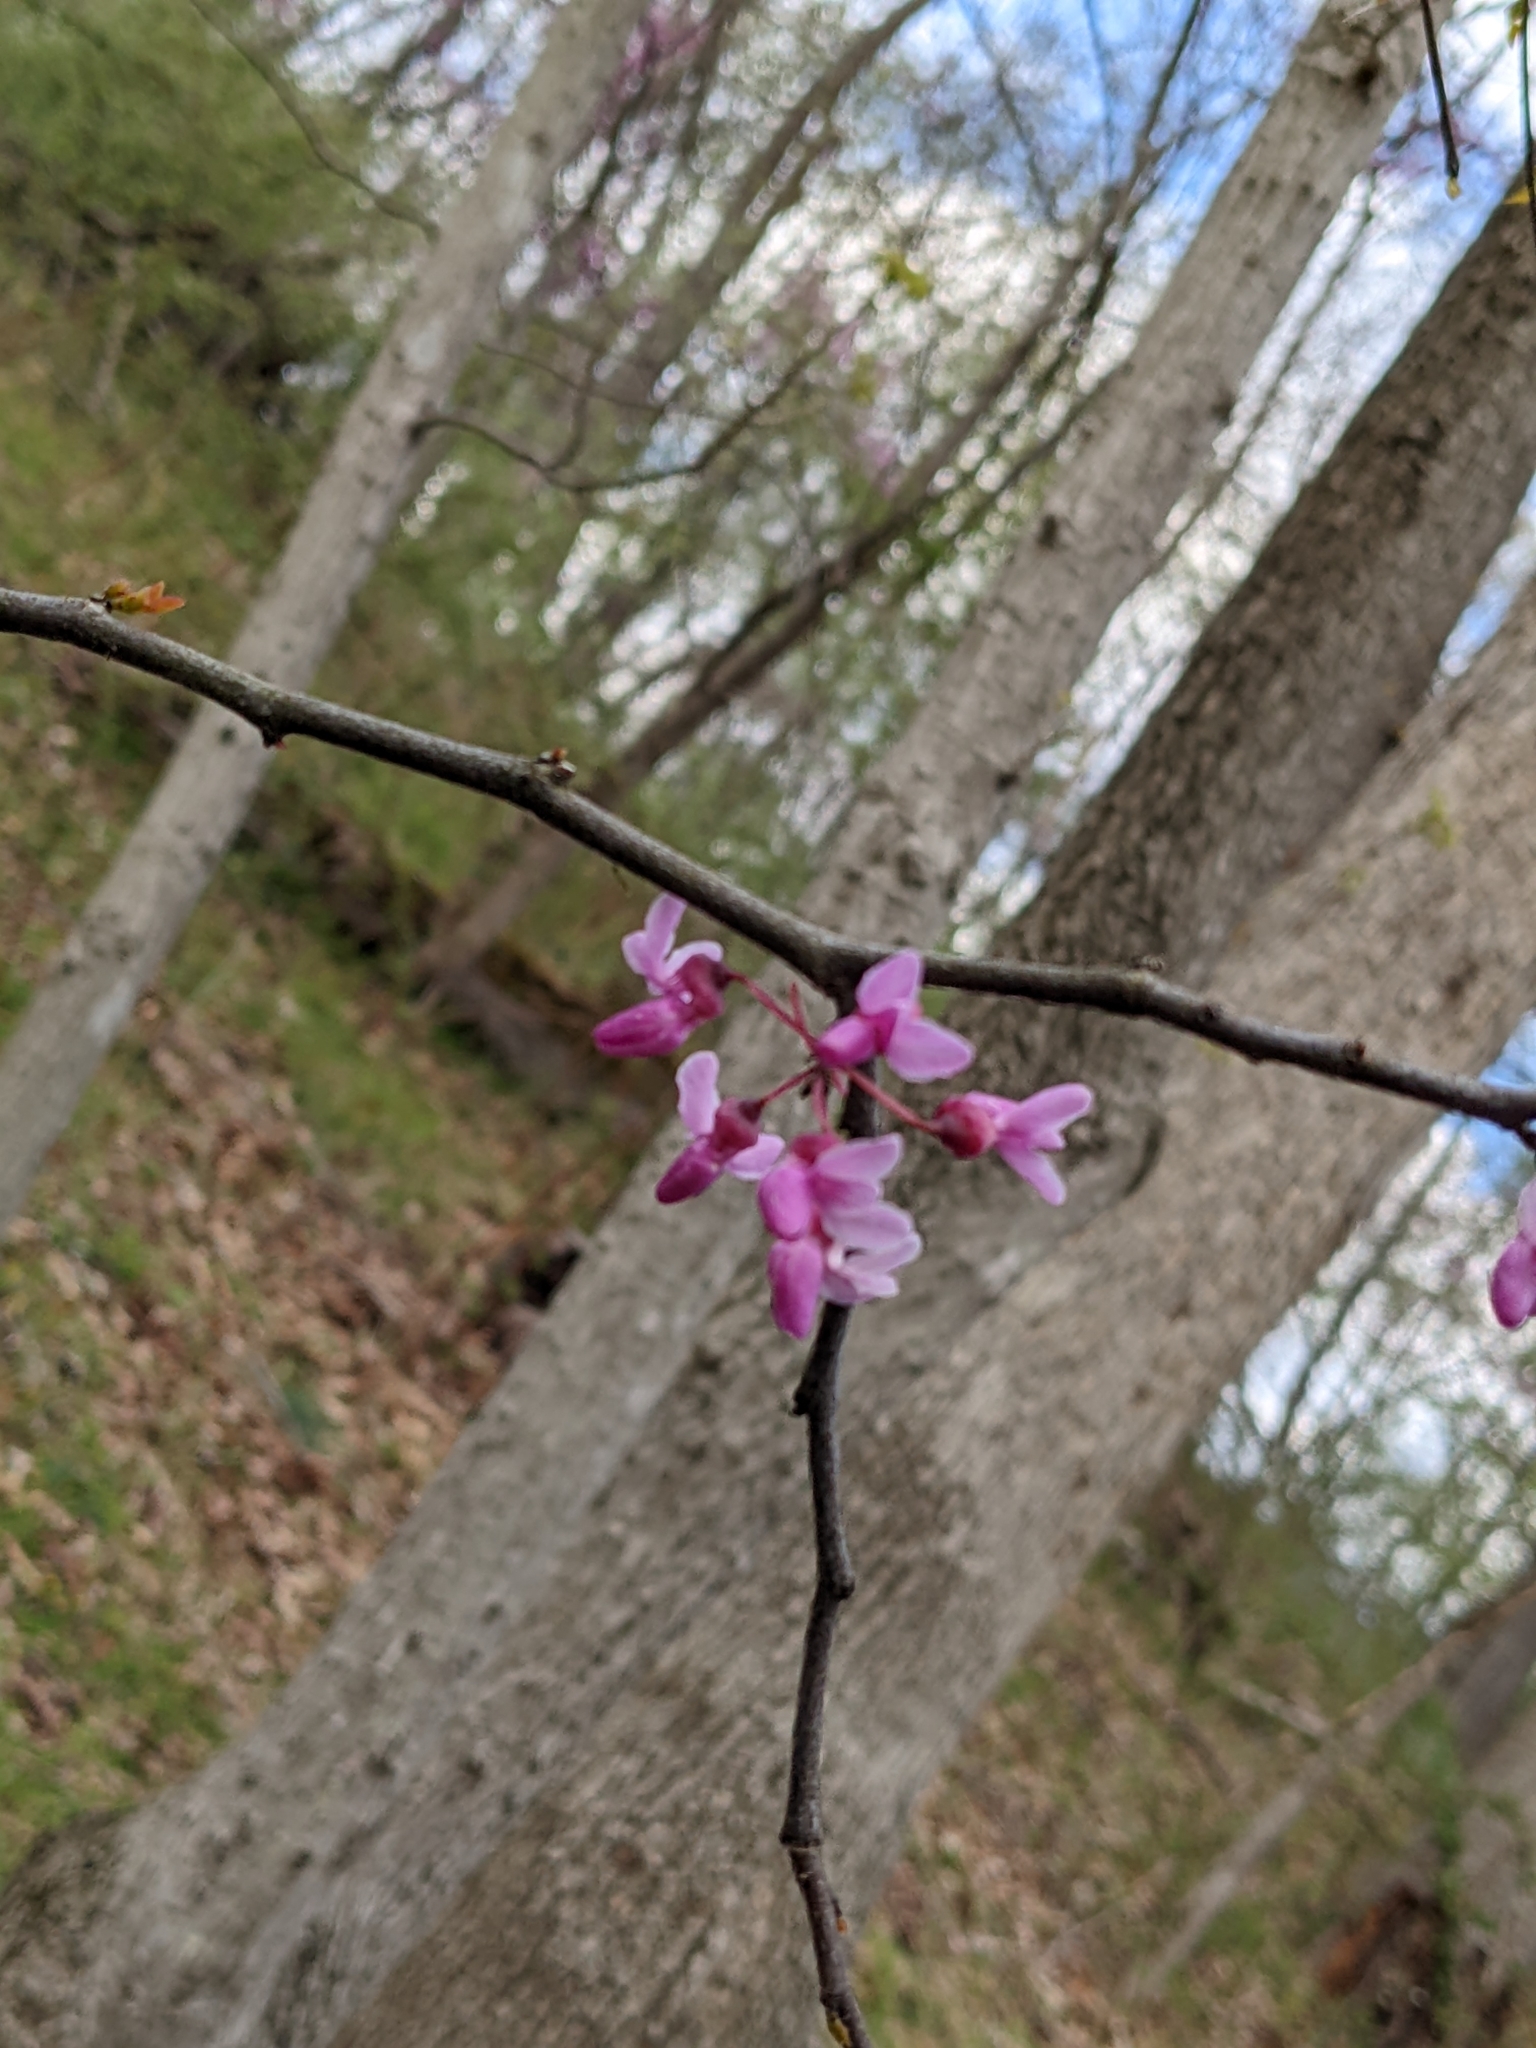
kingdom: Plantae
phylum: Tracheophyta
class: Magnoliopsida
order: Fabales
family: Fabaceae
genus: Cercis
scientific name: Cercis canadensis
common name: Eastern redbud
